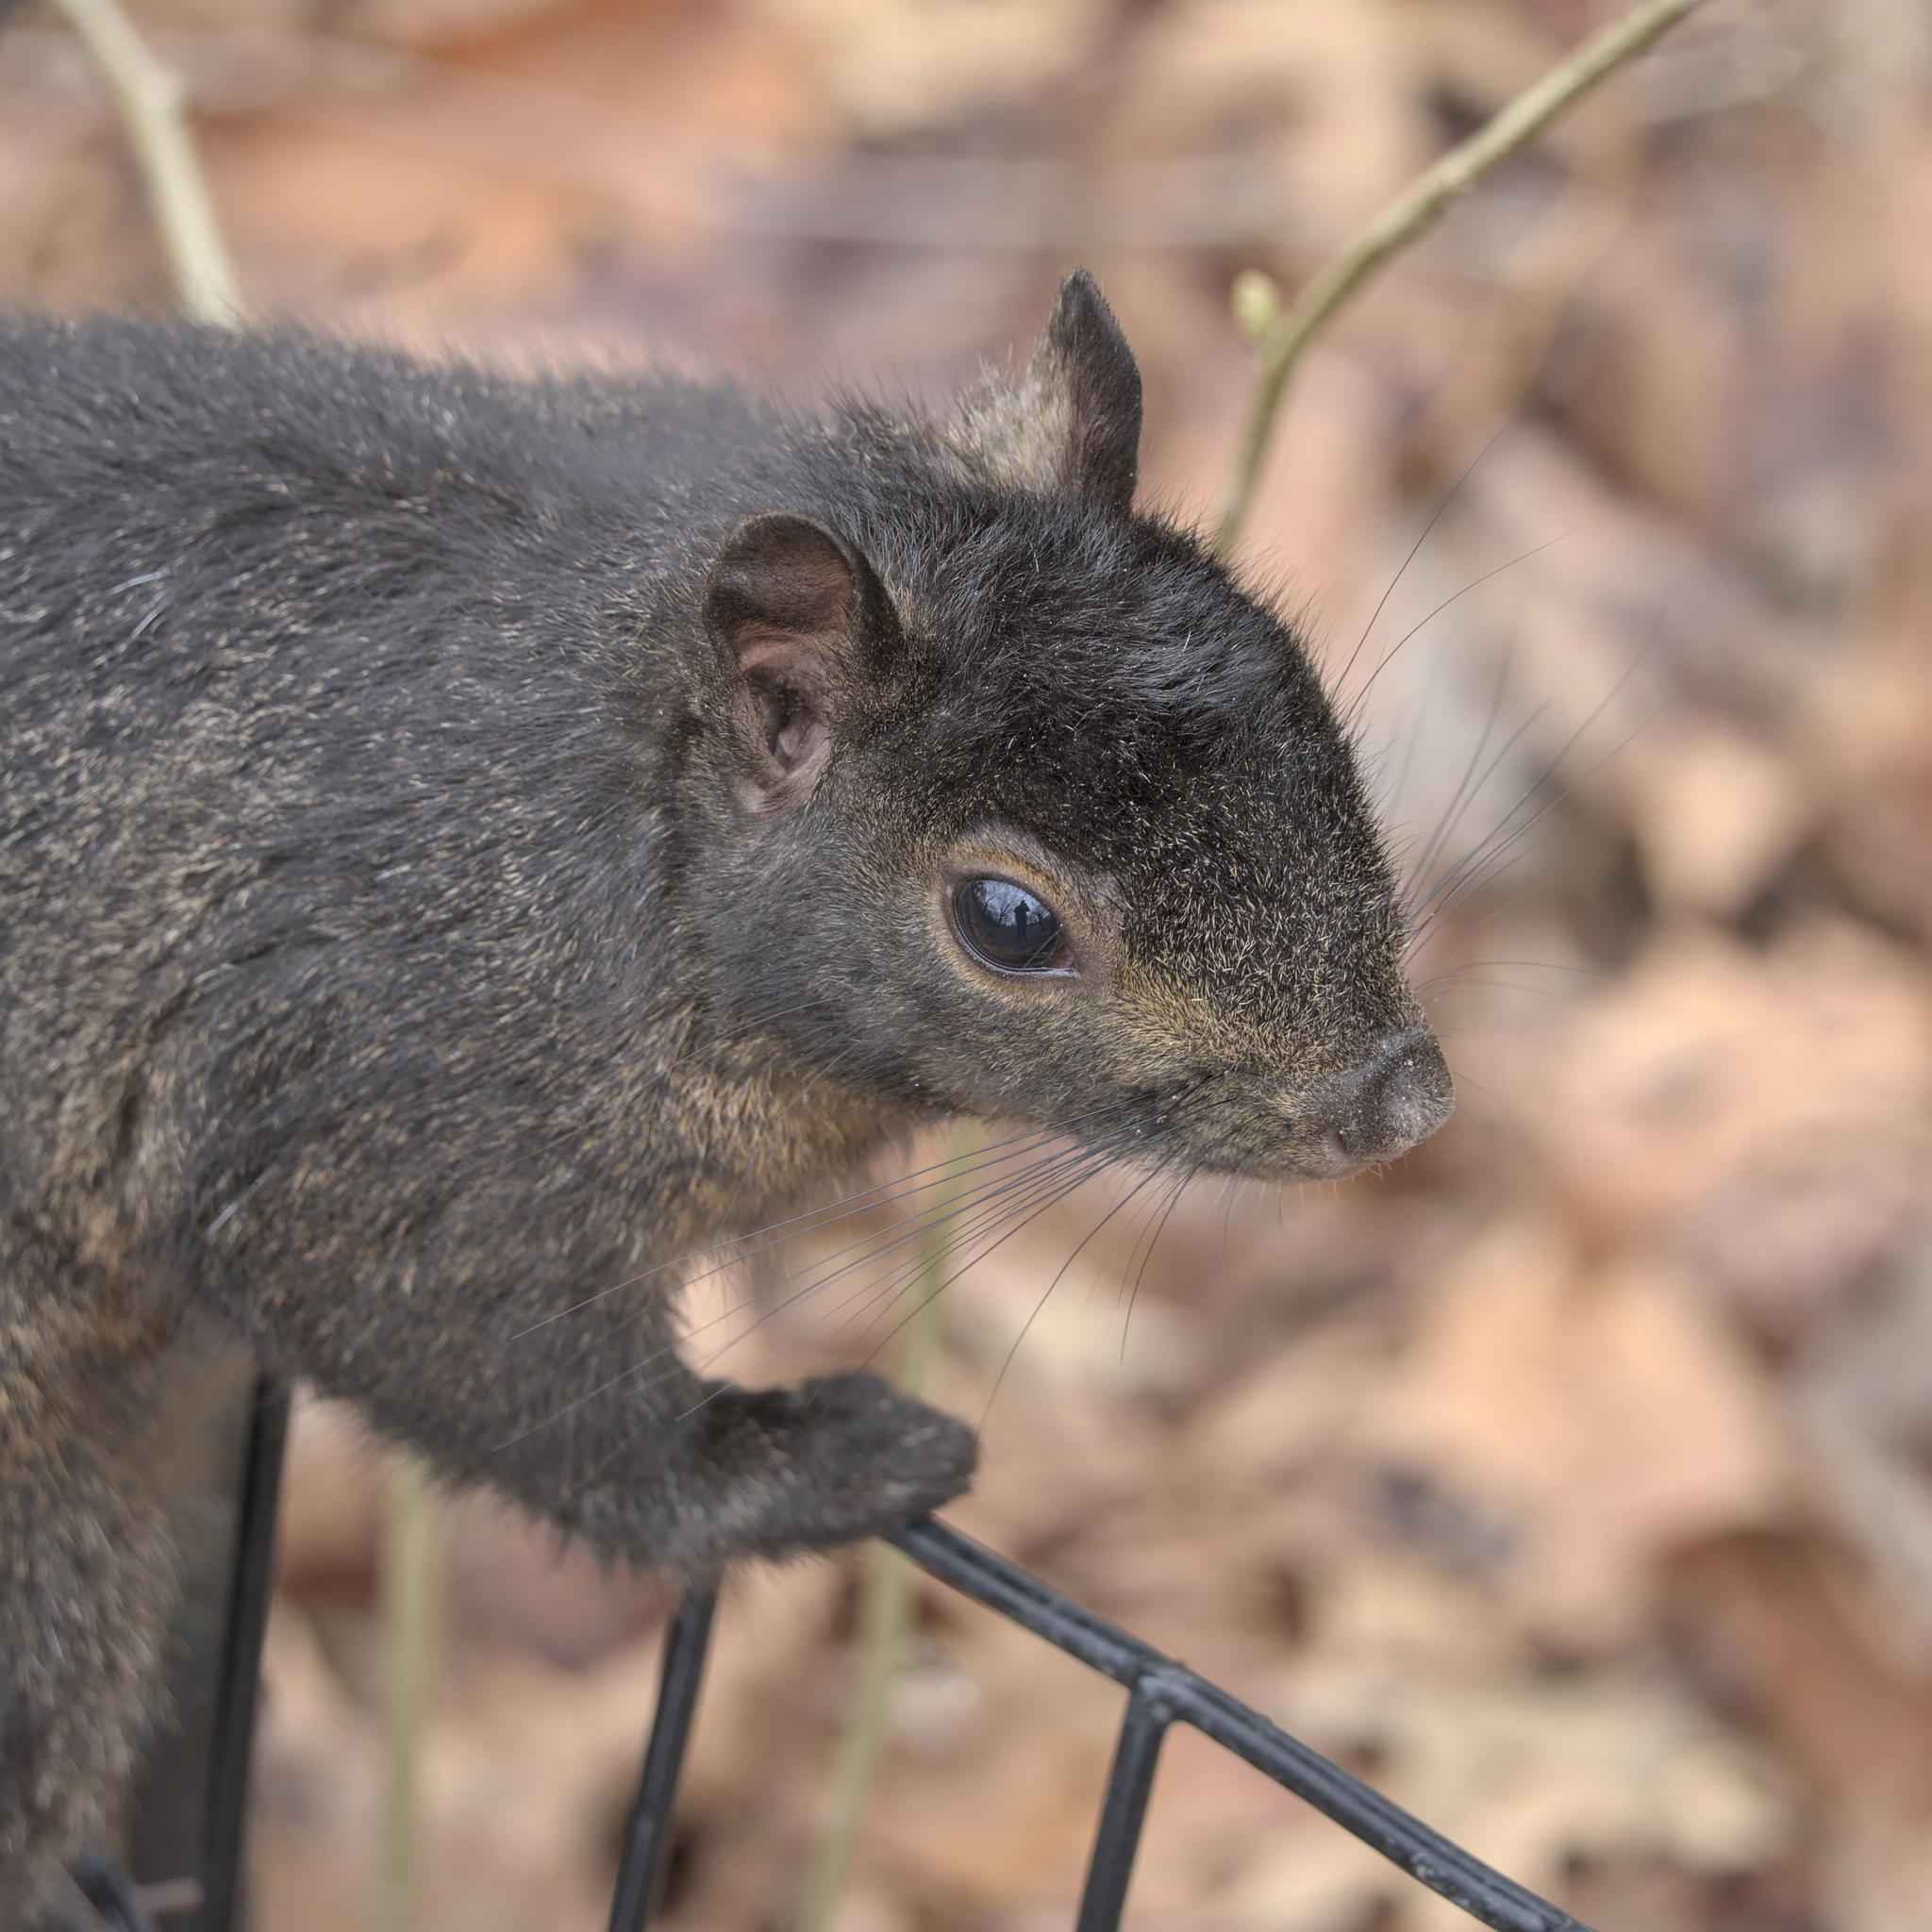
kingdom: Animalia
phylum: Chordata
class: Mammalia
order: Rodentia
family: Sciuridae
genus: Sciurus
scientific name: Sciurus carolinensis
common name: Eastern gray squirrel
